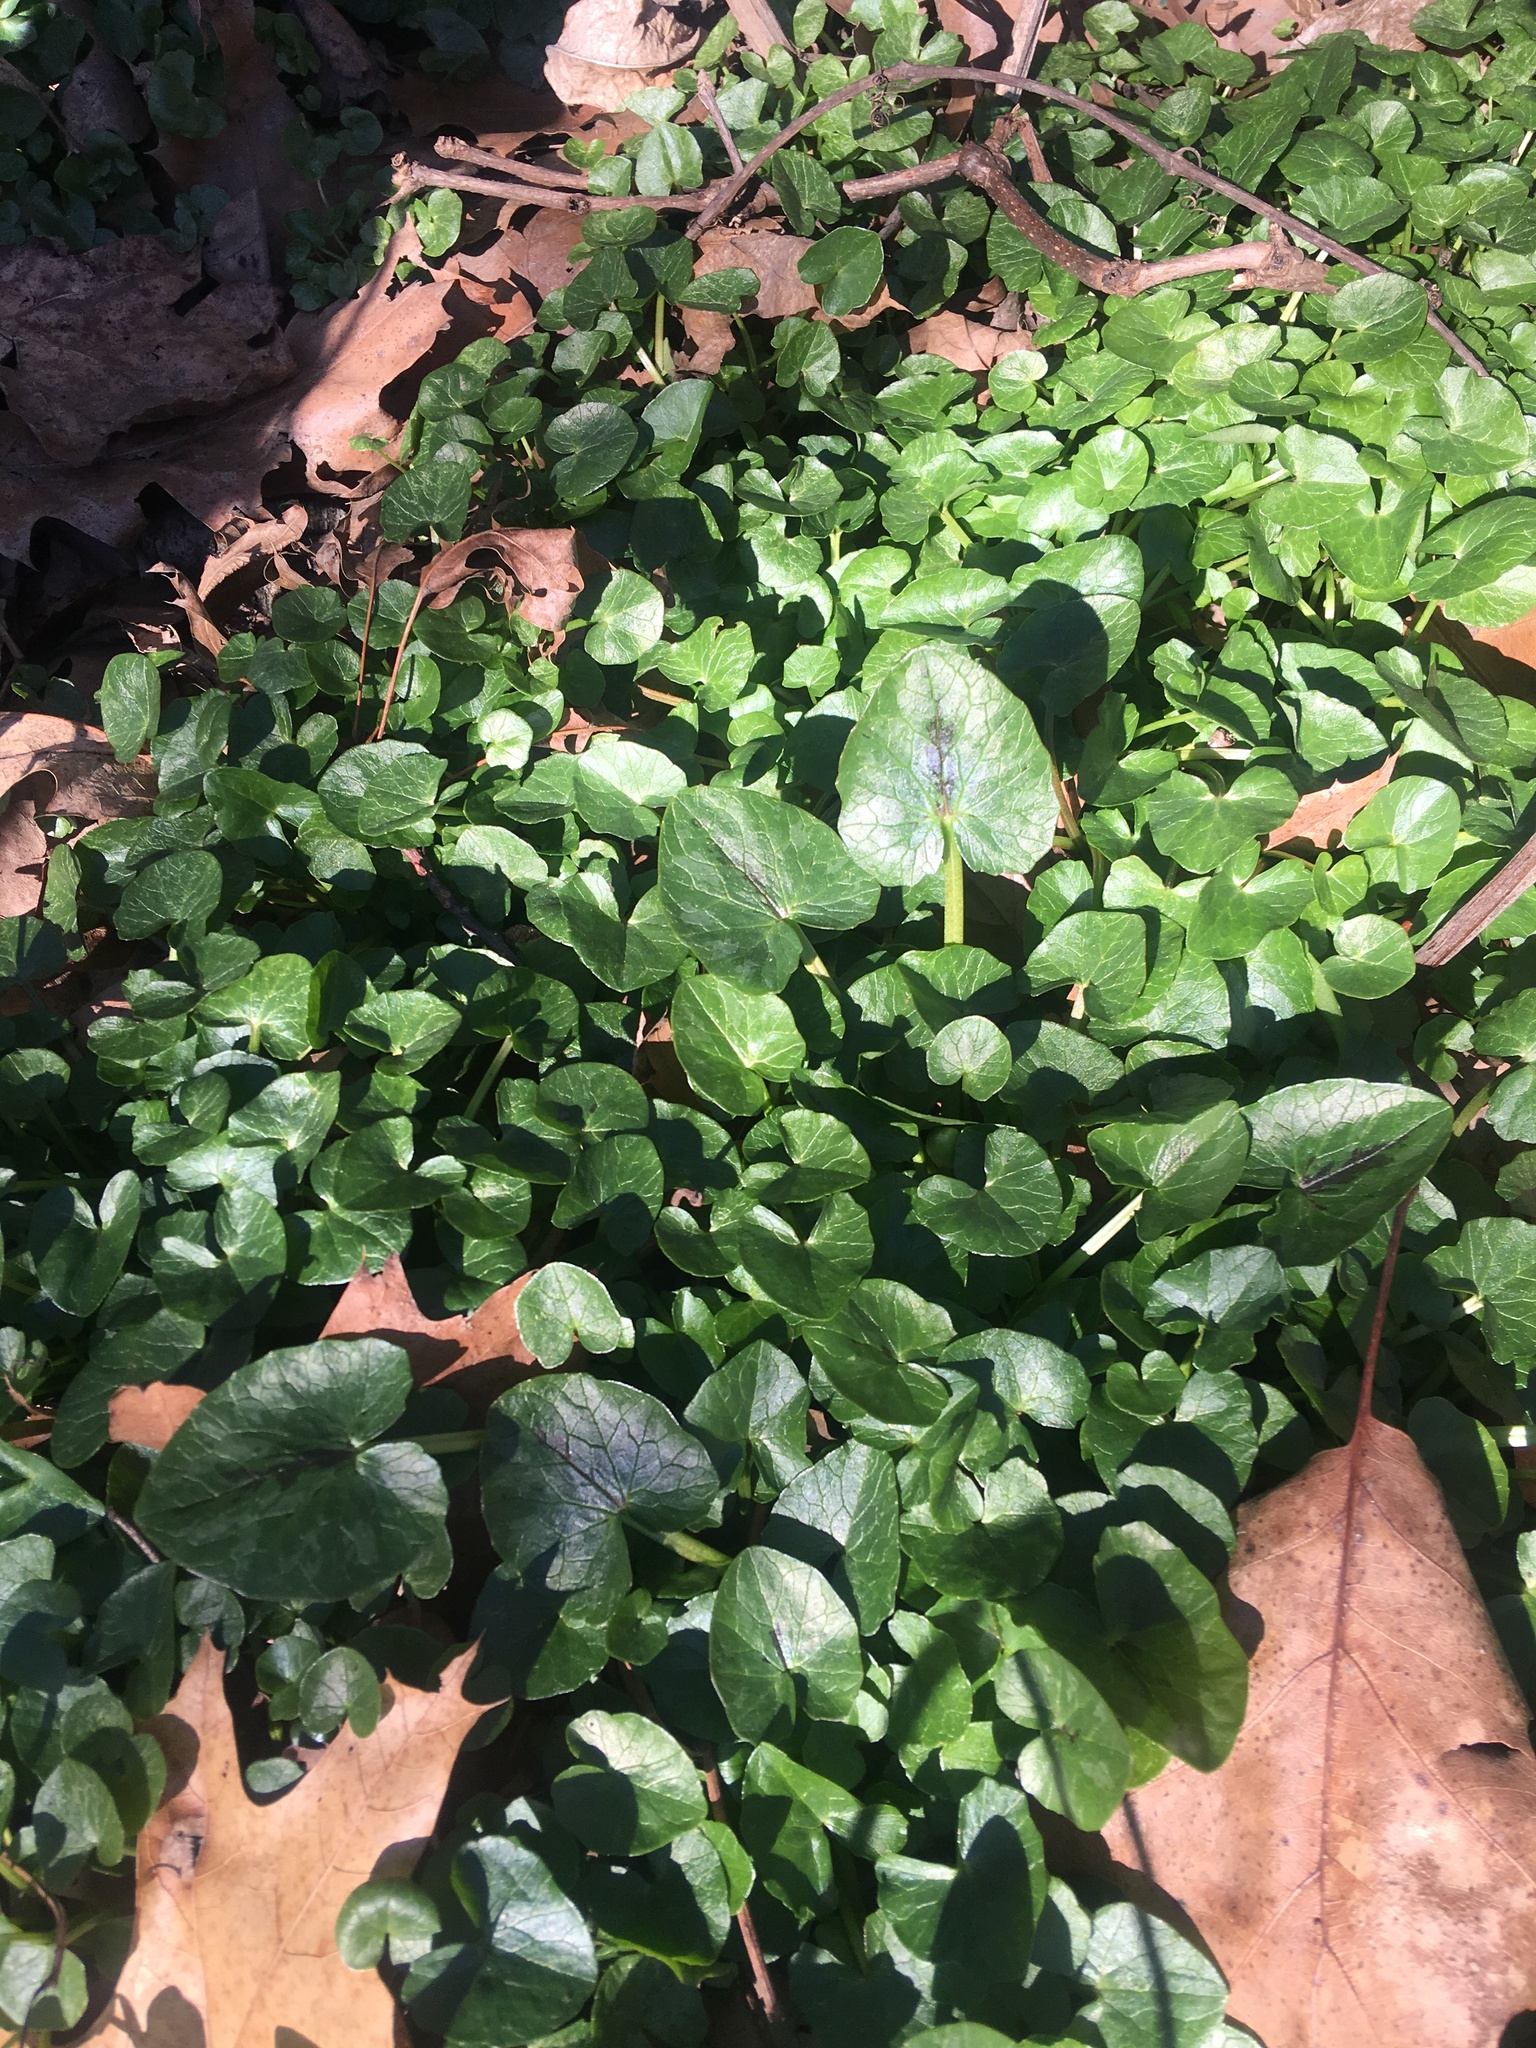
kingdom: Plantae
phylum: Tracheophyta
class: Magnoliopsida
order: Ranunculales
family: Ranunculaceae
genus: Ficaria
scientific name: Ficaria verna
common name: Lesser celandine
